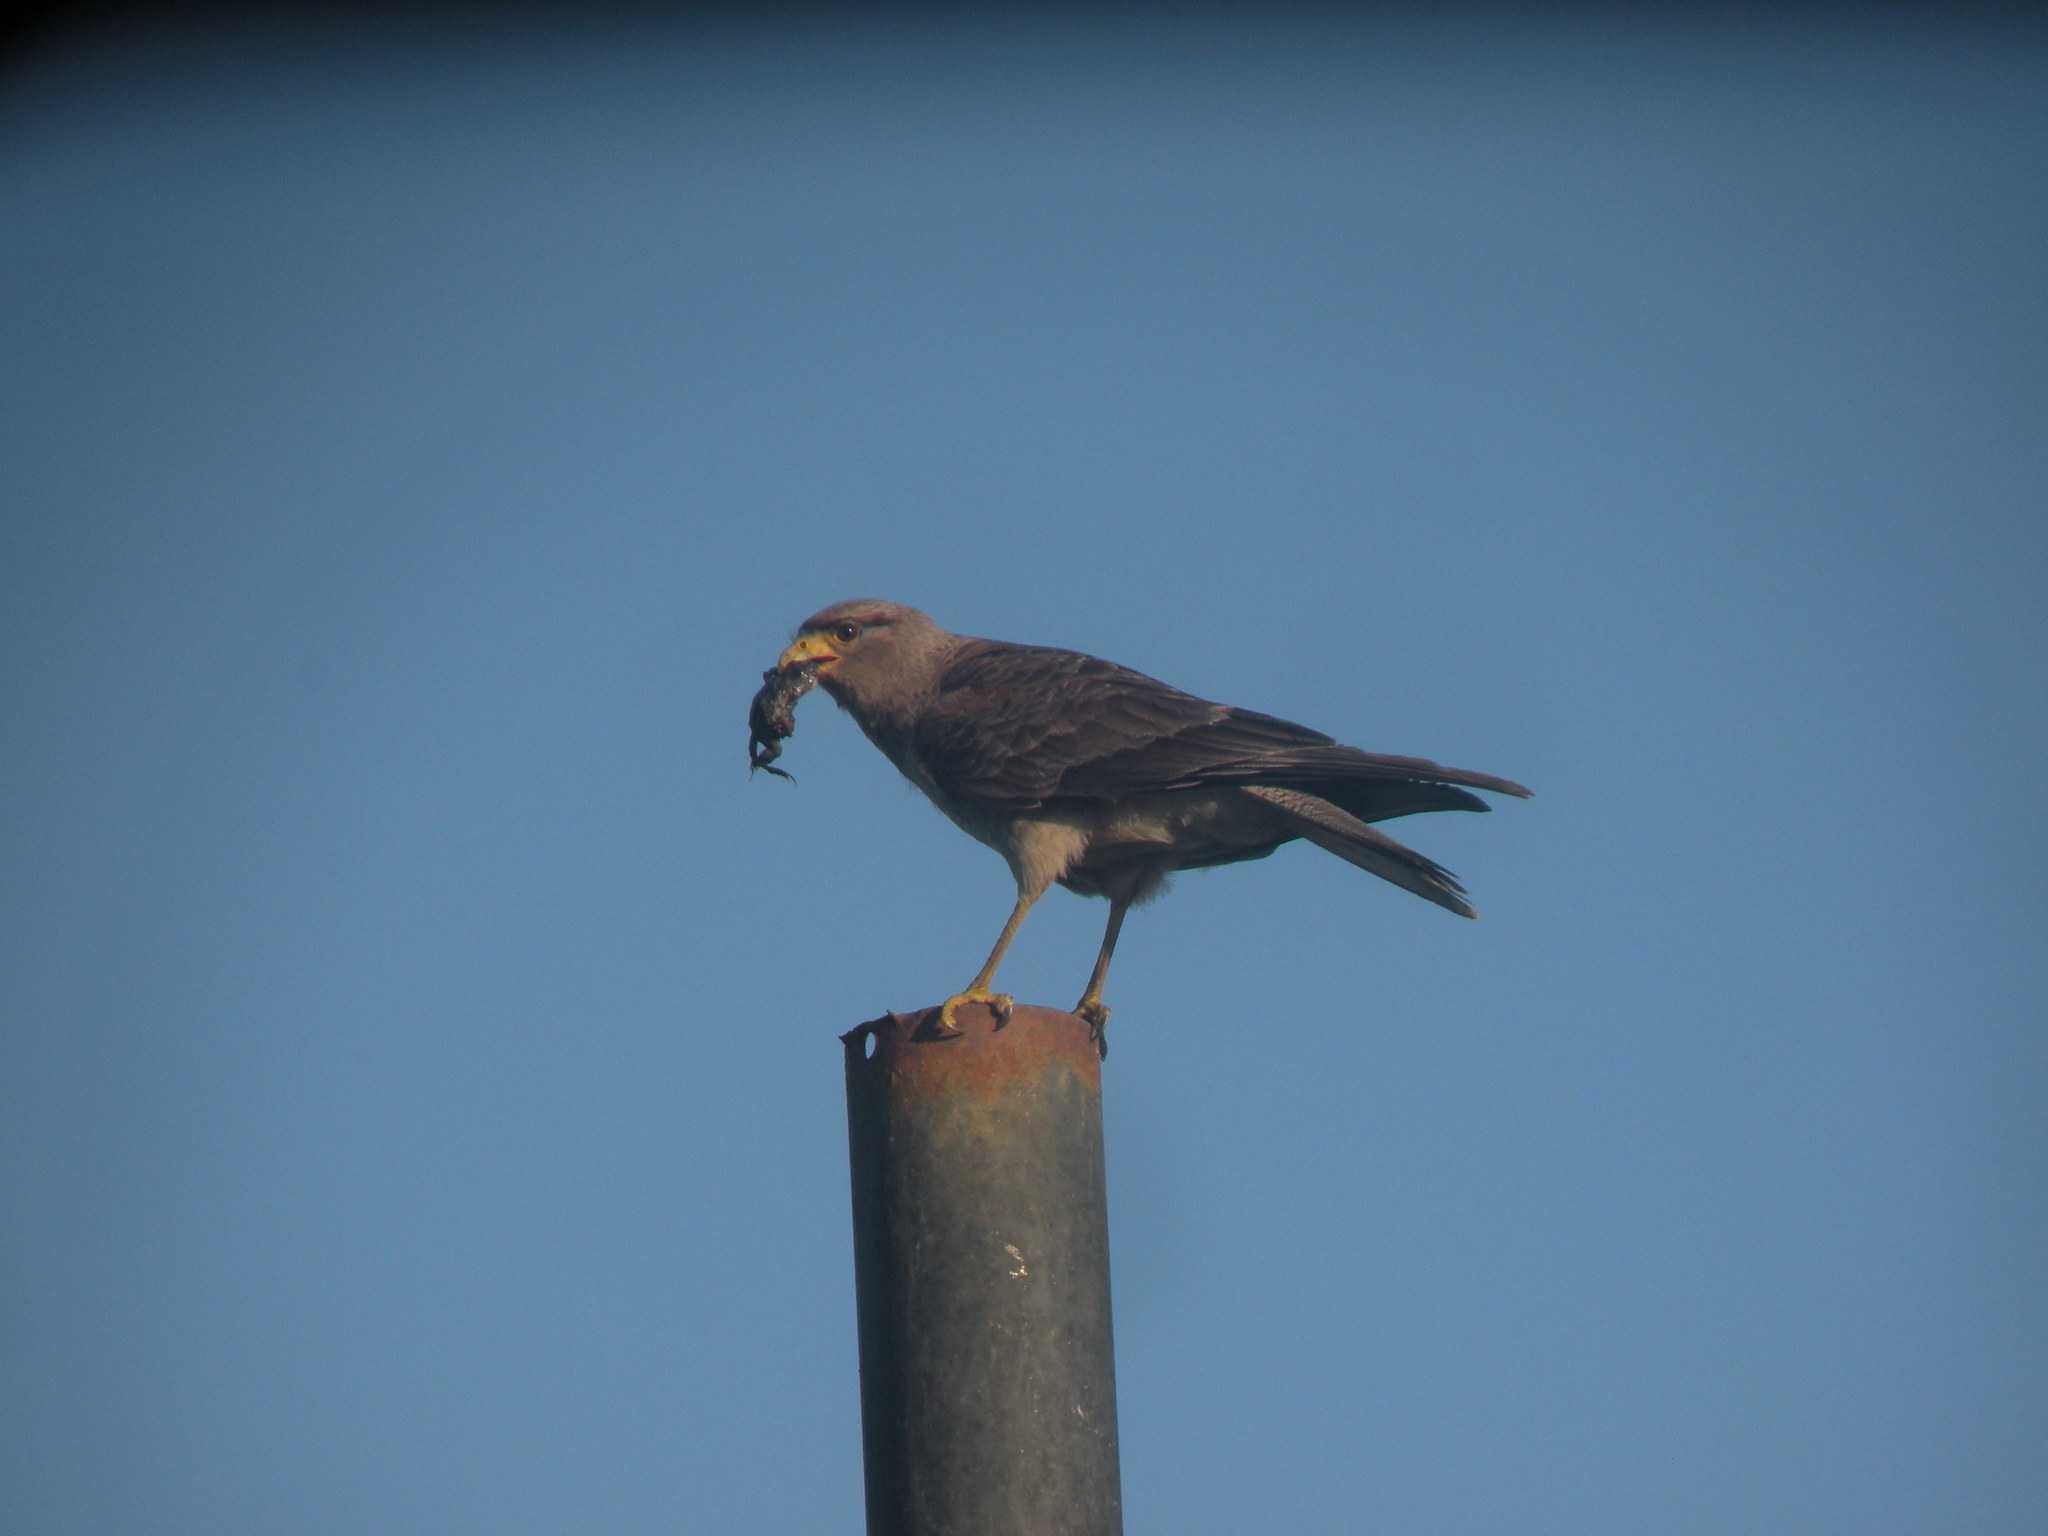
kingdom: Animalia
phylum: Chordata
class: Aves
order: Falconiformes
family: Falconidae
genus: Daptrius
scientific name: Daptrius
